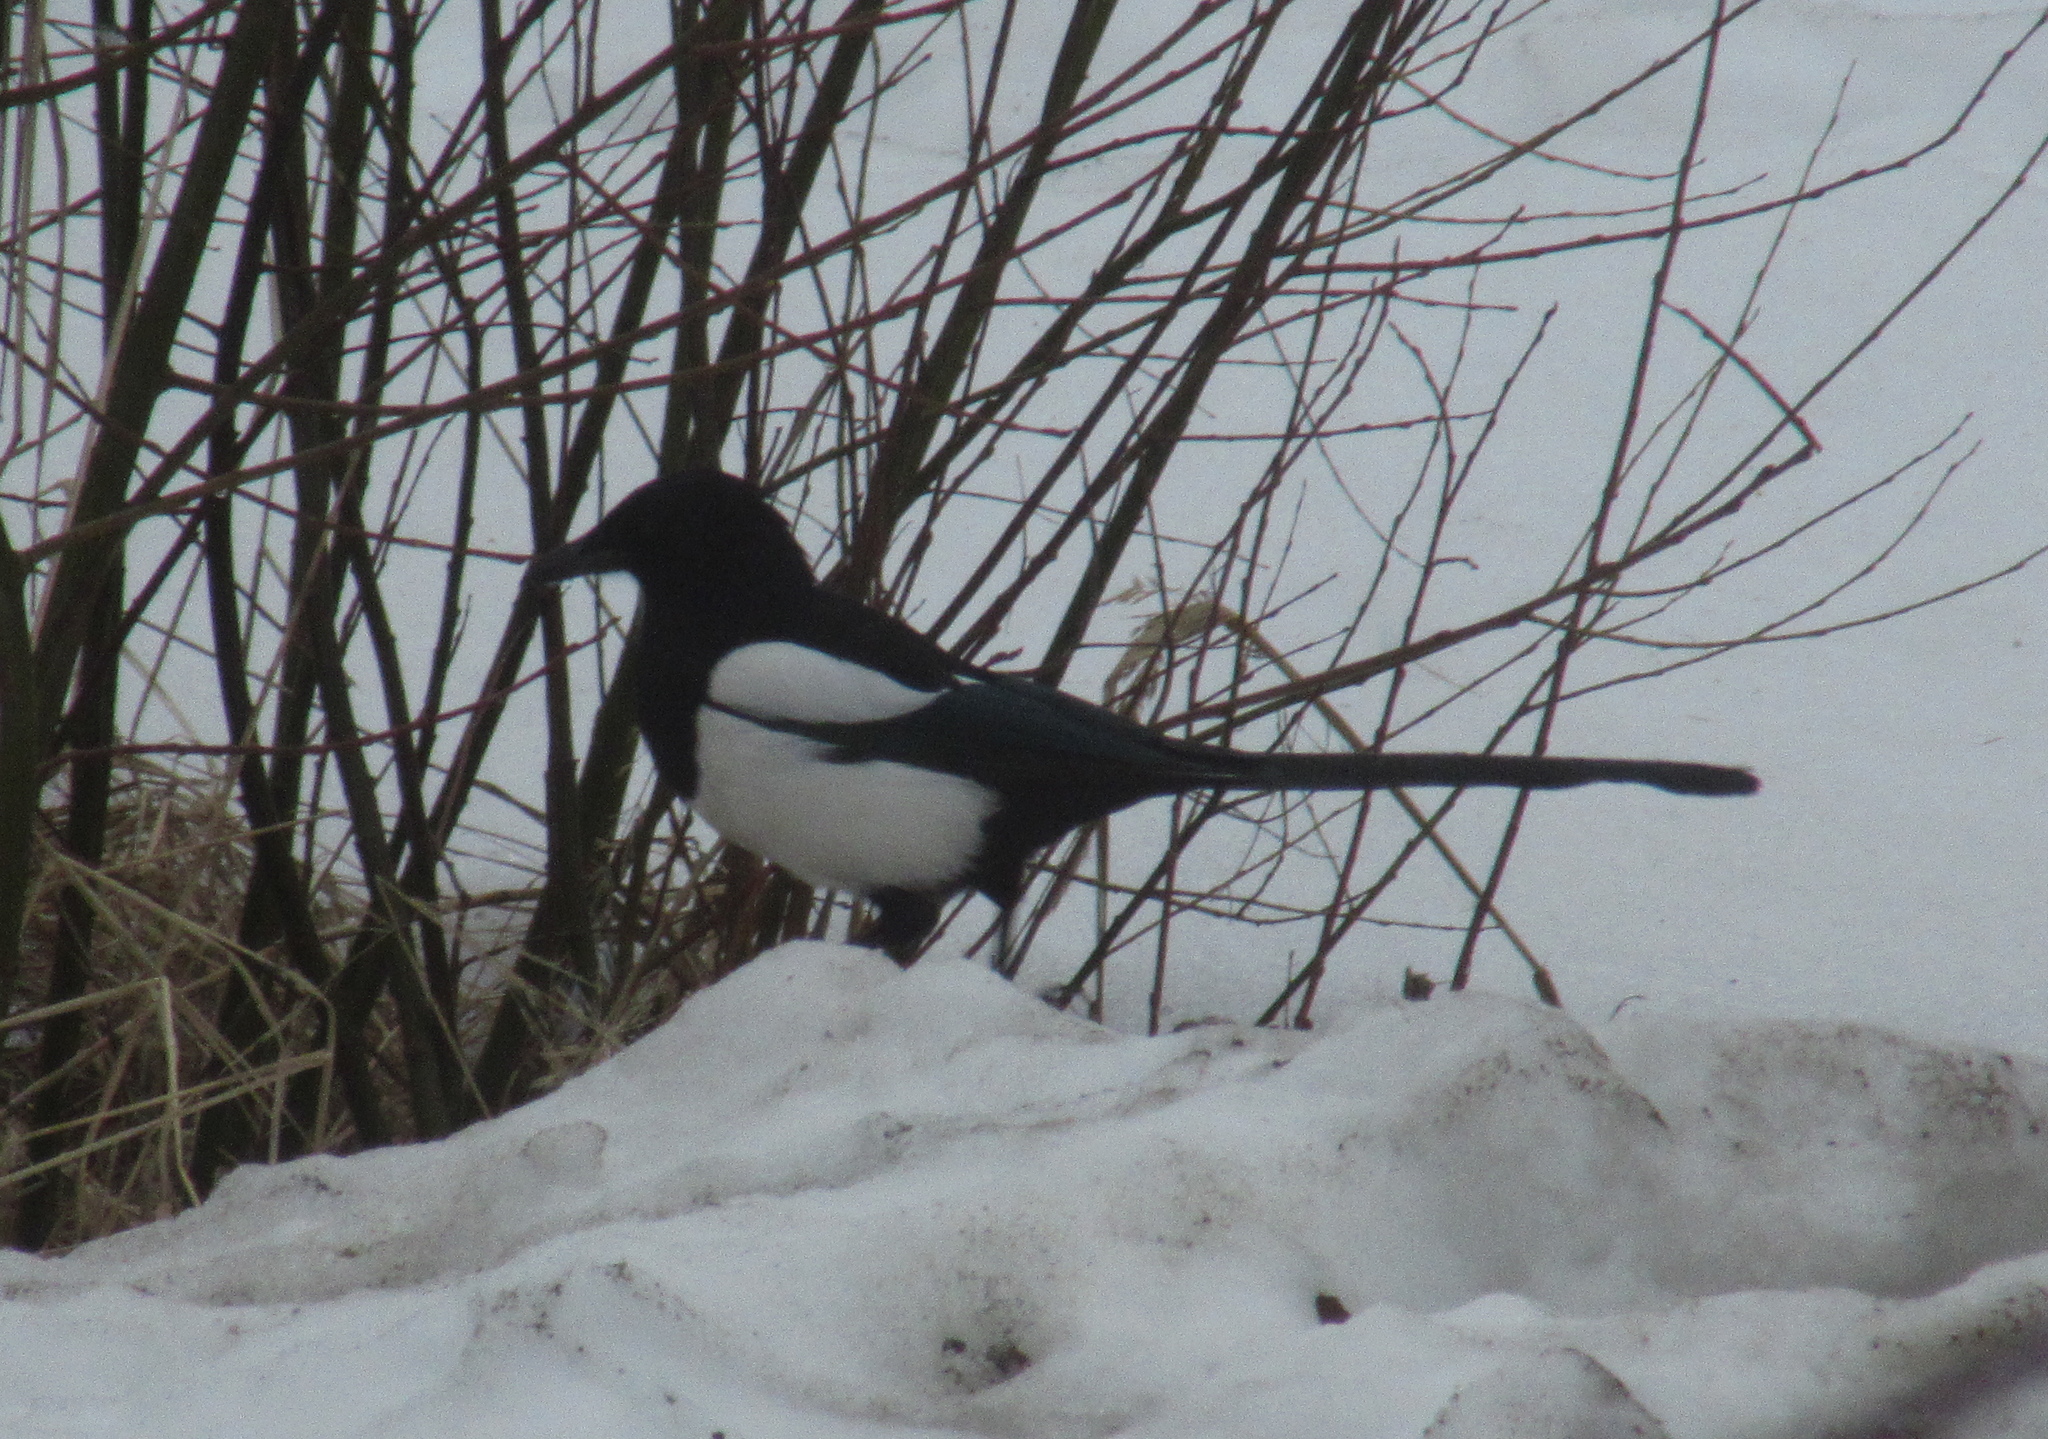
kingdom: Animalia
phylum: Chordata
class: Aves
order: Passeriformes
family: Corvidae
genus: Pica
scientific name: Pica pica
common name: Eurasian magpie
